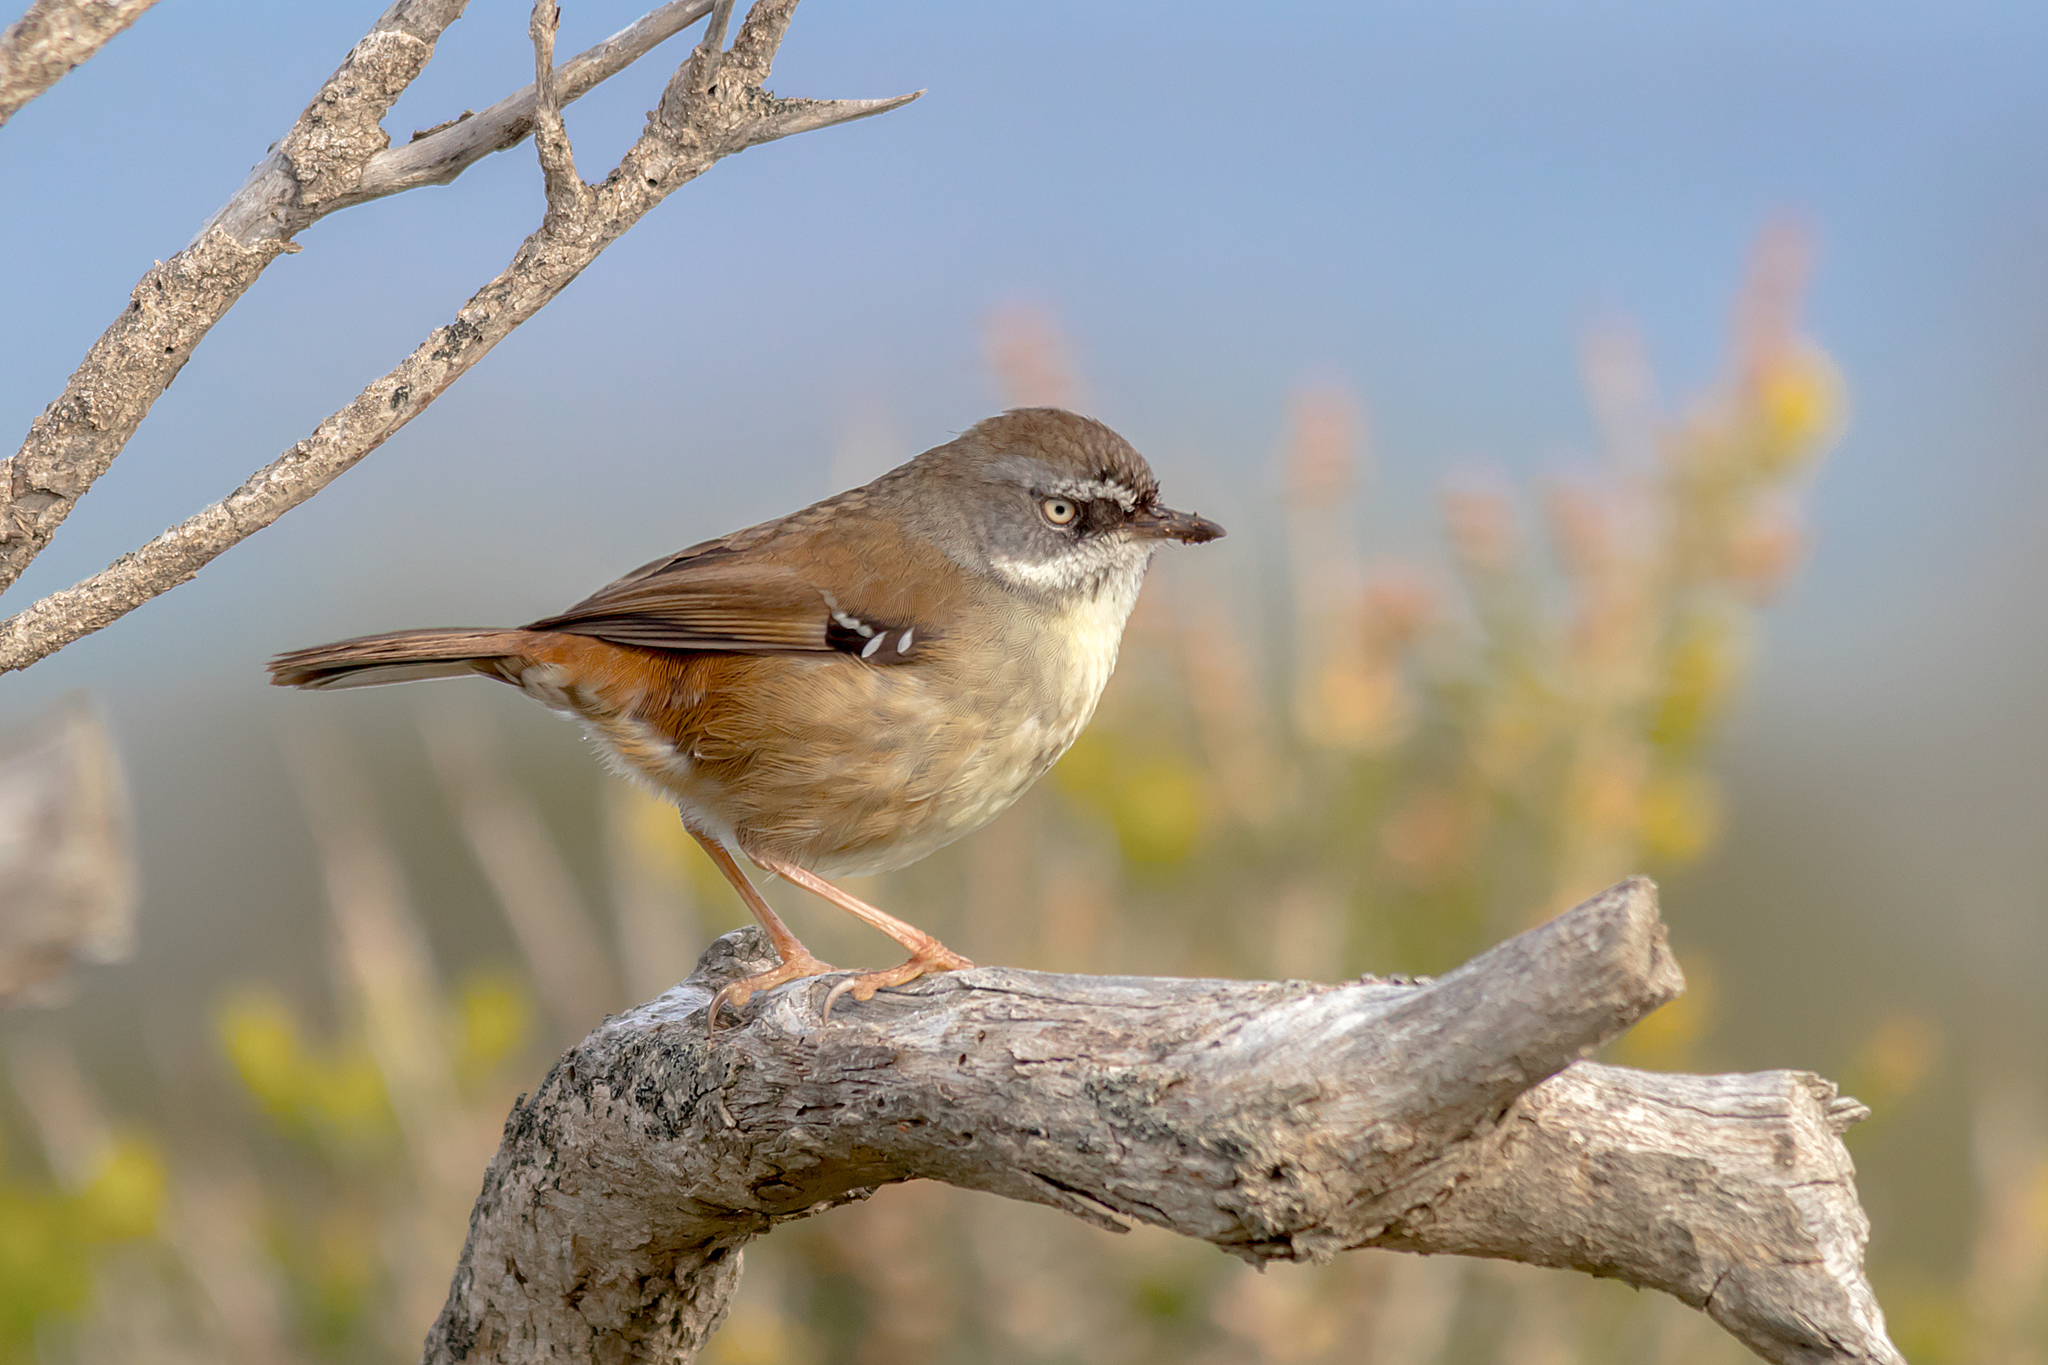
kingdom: Animalia
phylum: Chordata
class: Aves
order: Passeriformes
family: Acanthizidae
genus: Sericornis
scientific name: Sericornis frontalis
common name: White-browed scrubwren
